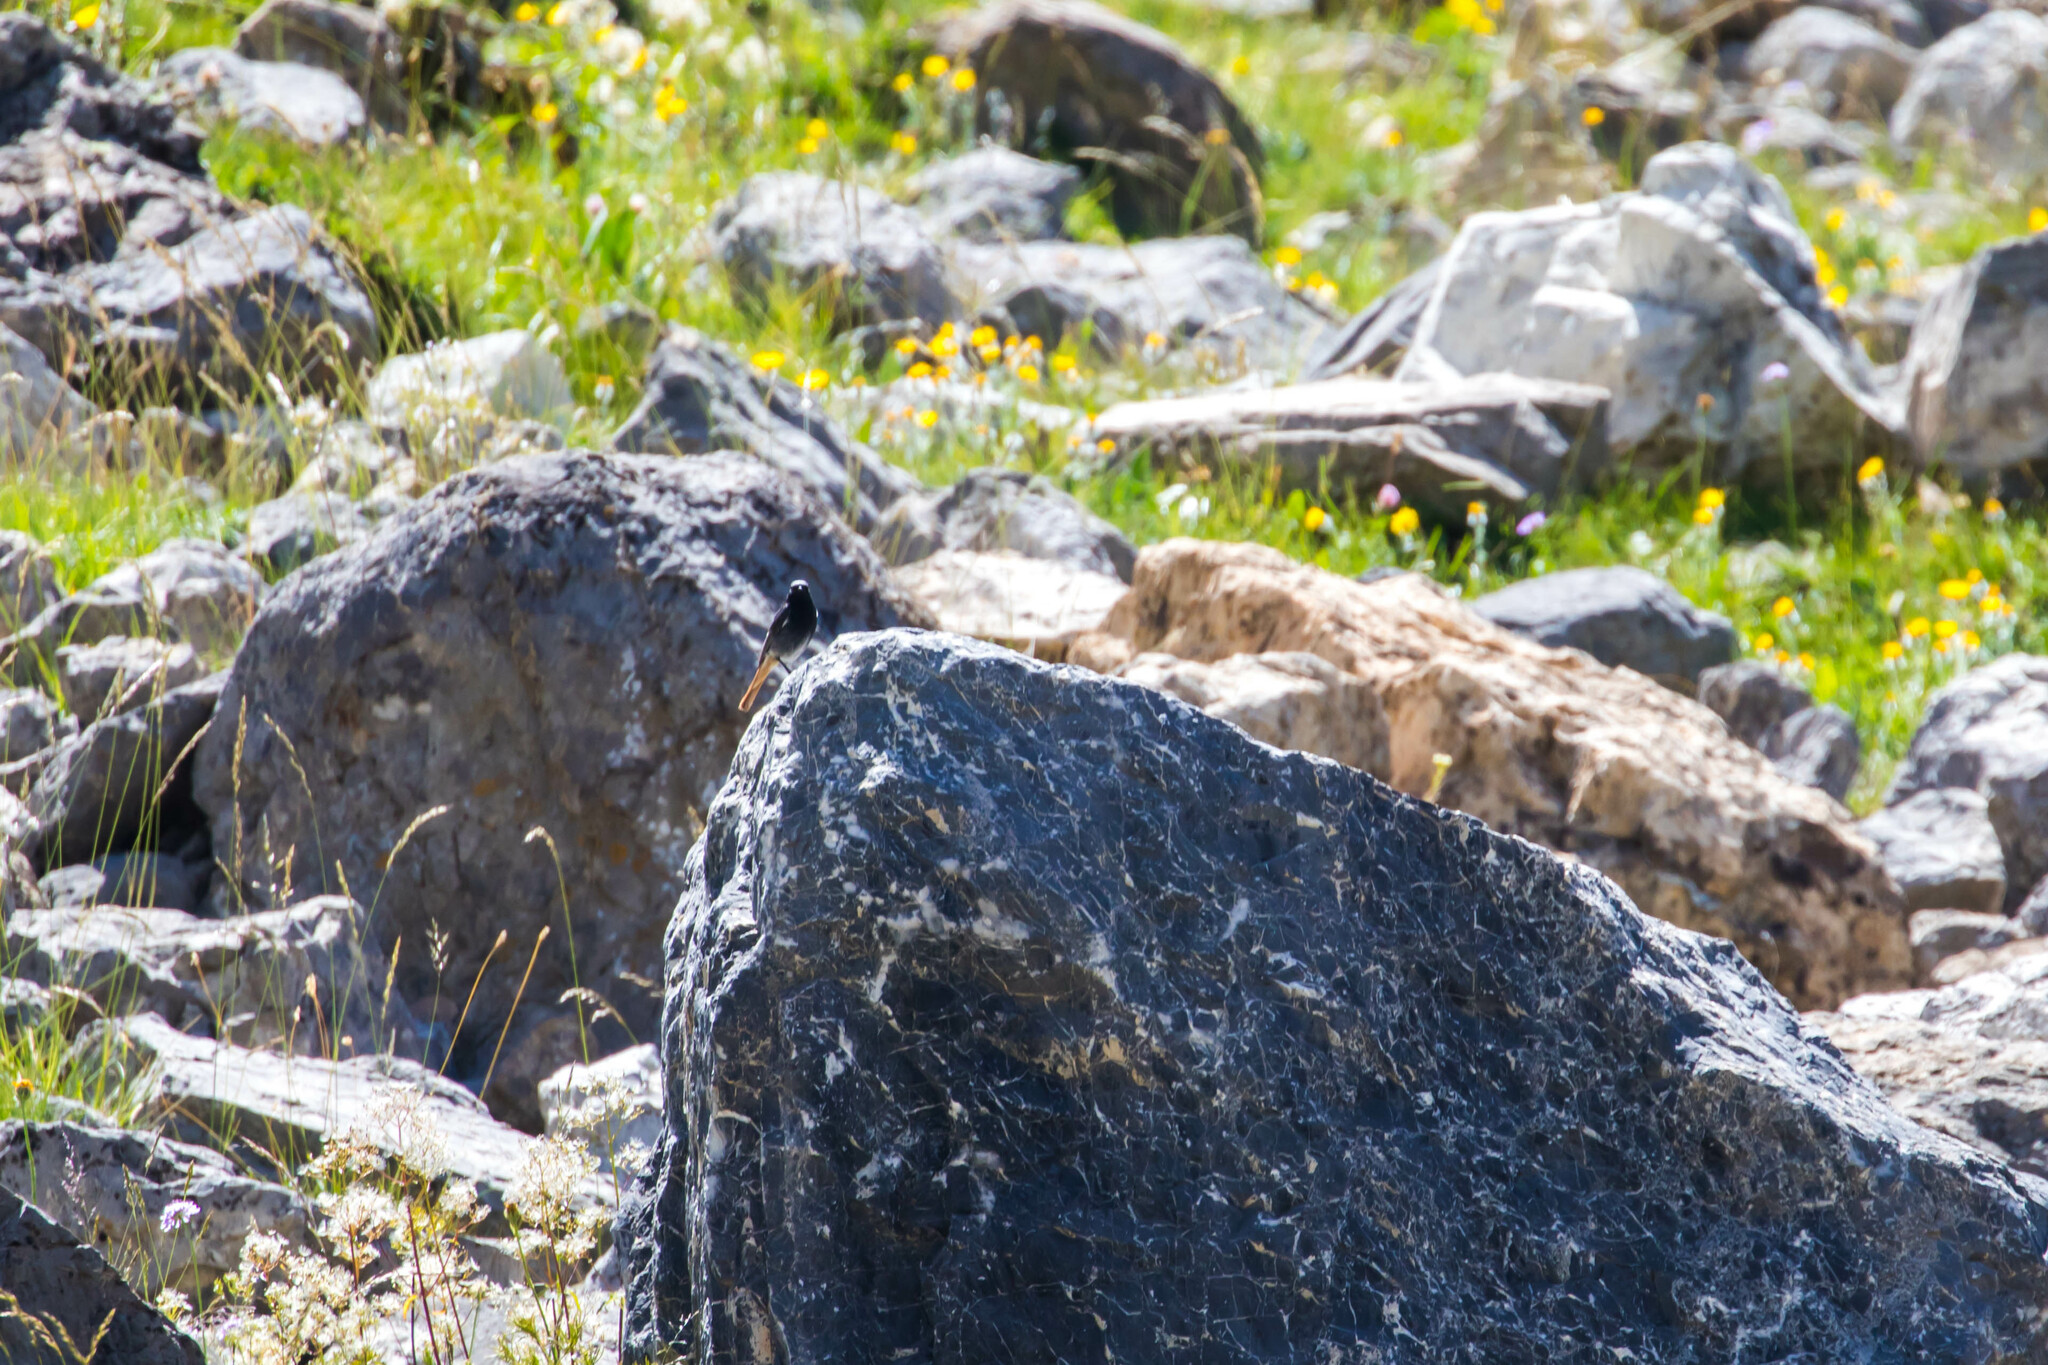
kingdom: Animalia
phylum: Chordata
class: Aves
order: Passeriformes
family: Muscicapidae
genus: Phoenicurus
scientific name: Phoenicurus ochruros
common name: Black redstart
